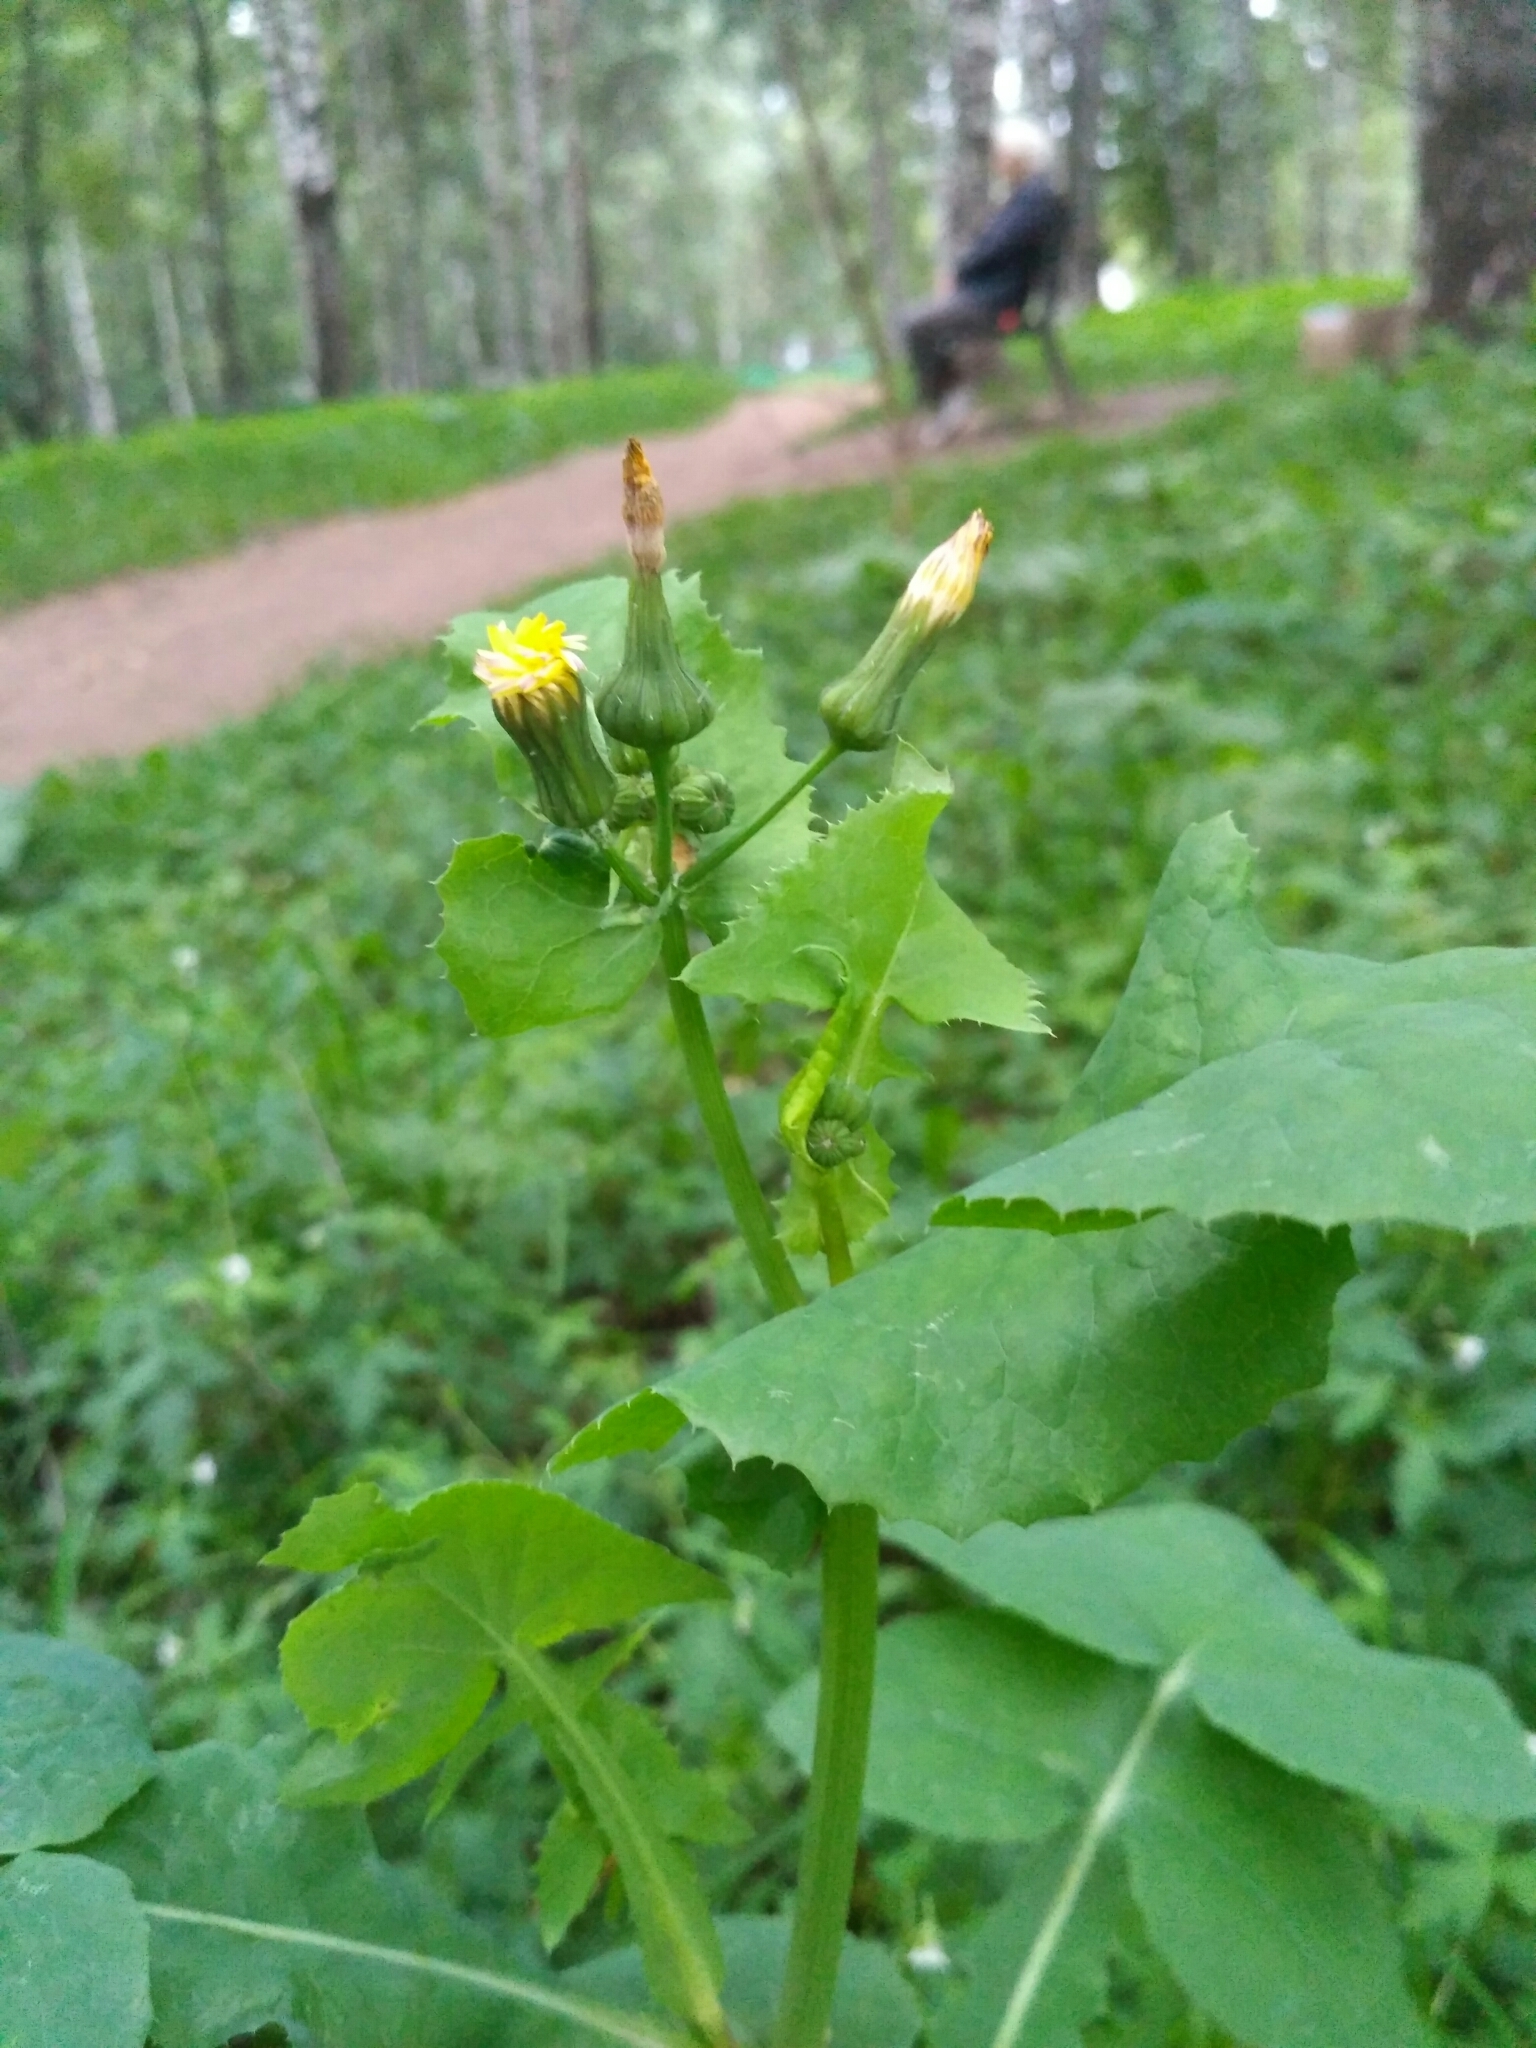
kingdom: Plantae
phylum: Tracheophyta
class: Magnoliopsida
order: Asterales
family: Asteraceae
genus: Sonchus
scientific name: Sonchus oleraceus
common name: Common sowthistle
